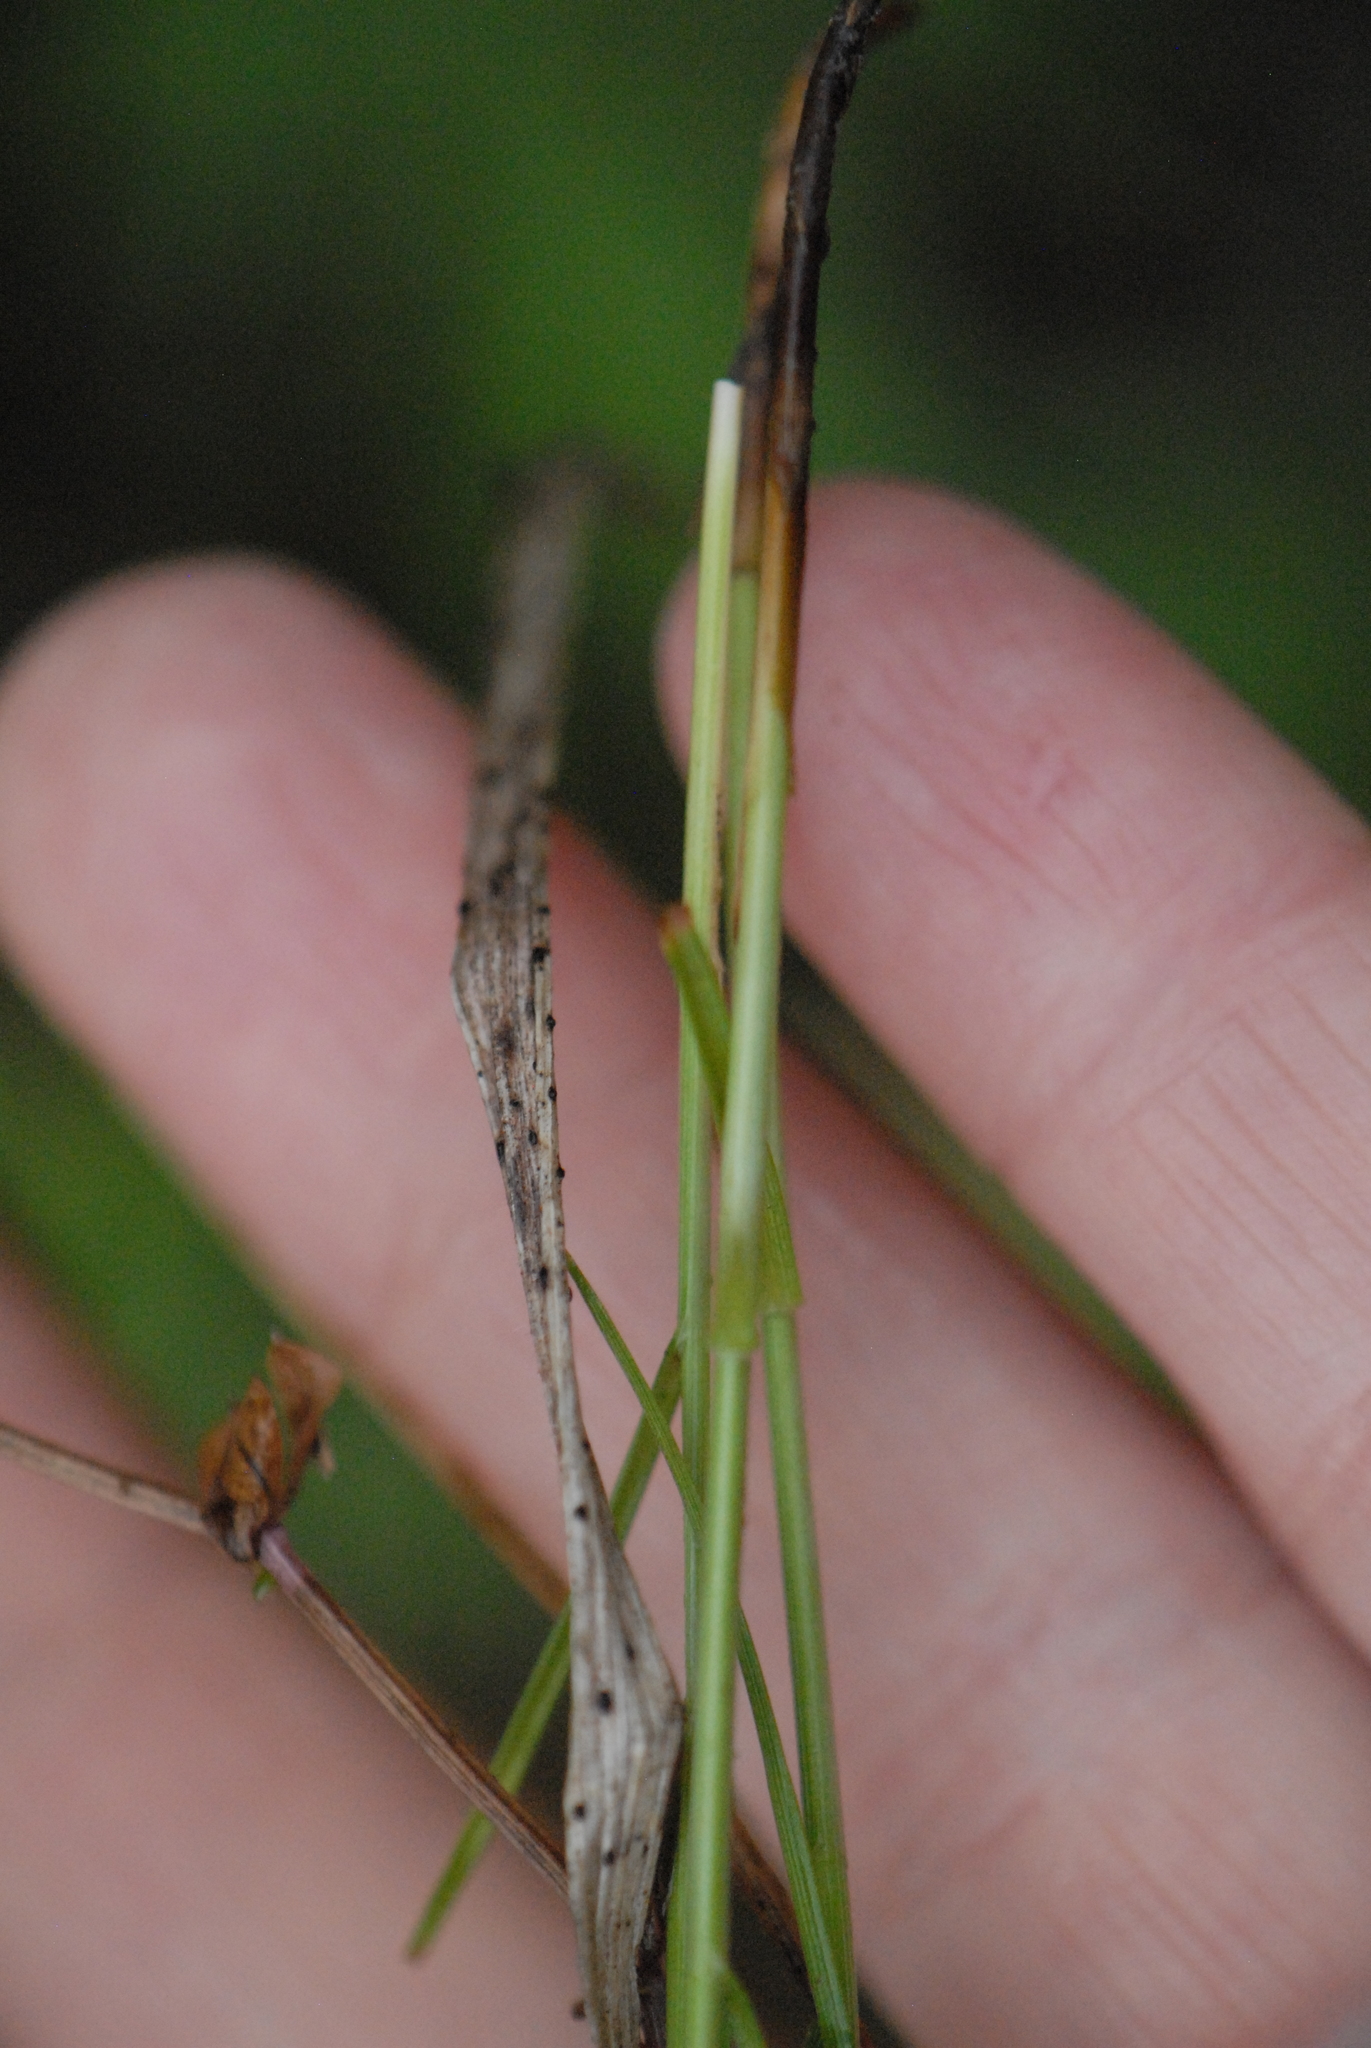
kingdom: Plantae
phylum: Tracheophyta
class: Liliopsida
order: Poales
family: Cyperaceae
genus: Carex
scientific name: Carex praecox
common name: Early sedge
